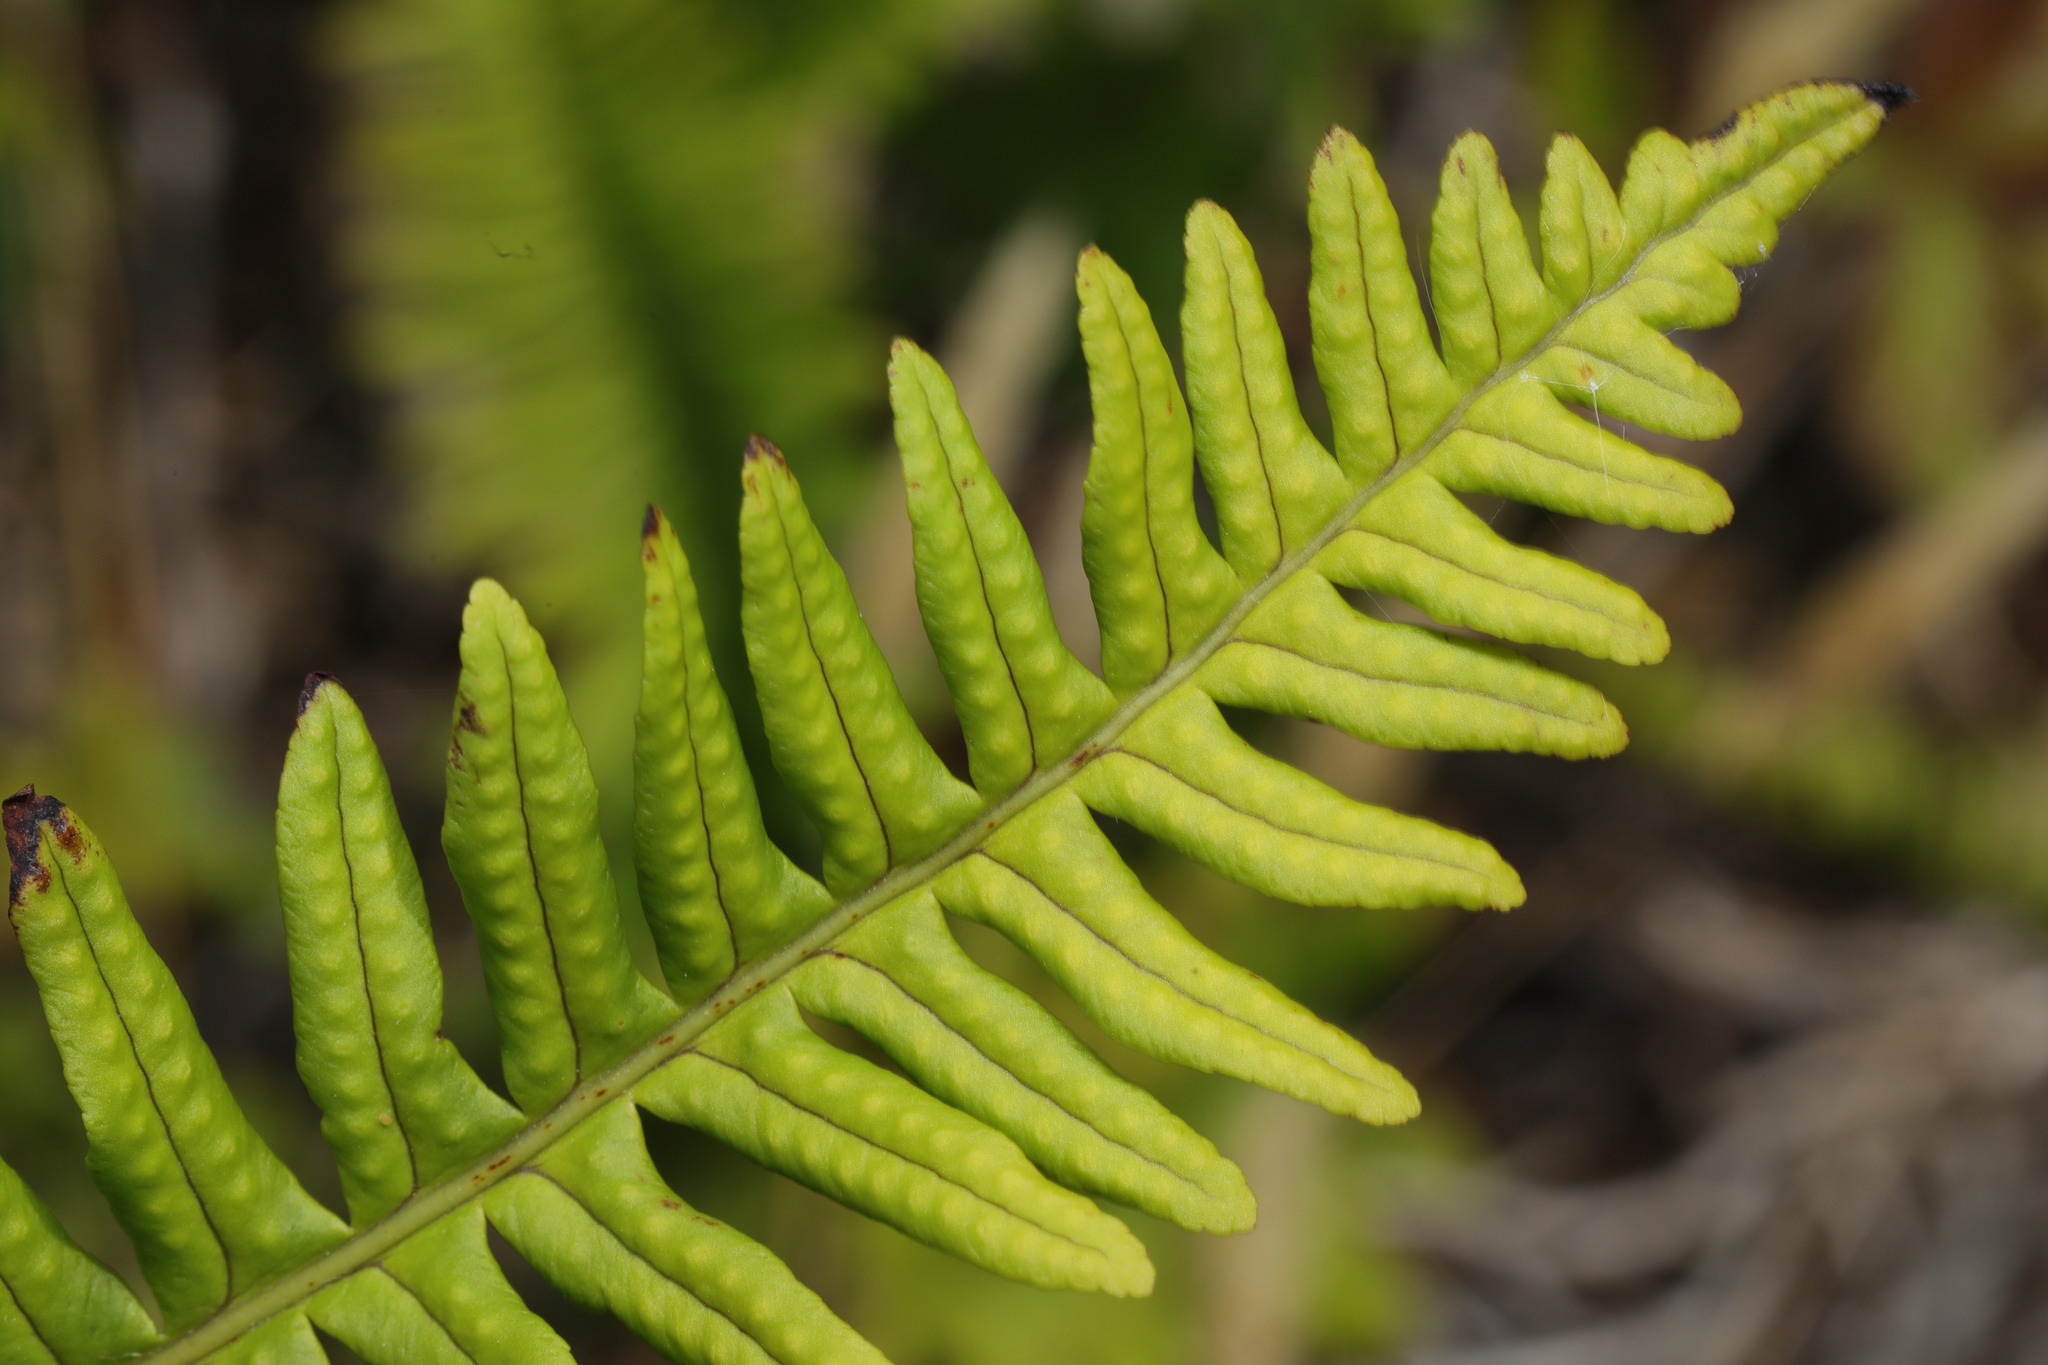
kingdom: Plantae
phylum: Tracheophyta
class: Polypodiopsida
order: Polypodiales
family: Polypodiaceae
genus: Polypodium
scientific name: Polypodium vulgare
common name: Common polypody
